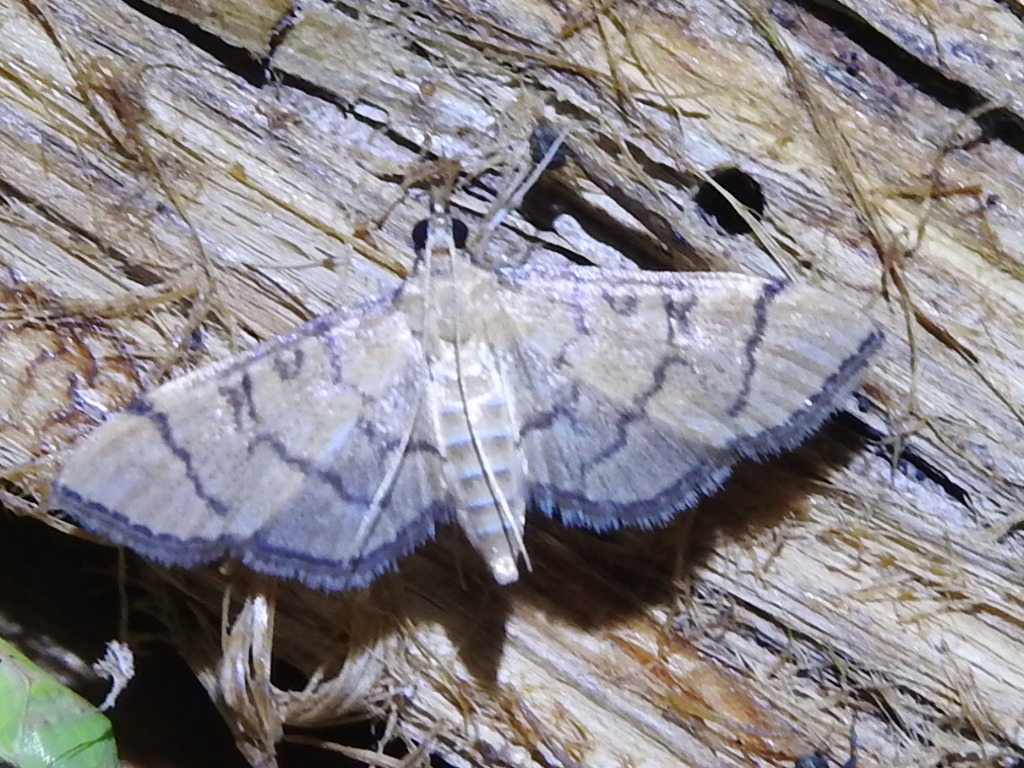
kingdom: Animalia
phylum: Arthropoda
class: Insecta
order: Lepidoptera
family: Crambidae
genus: Lamprosema
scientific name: Lamprosema Blepharomastix ranalis
